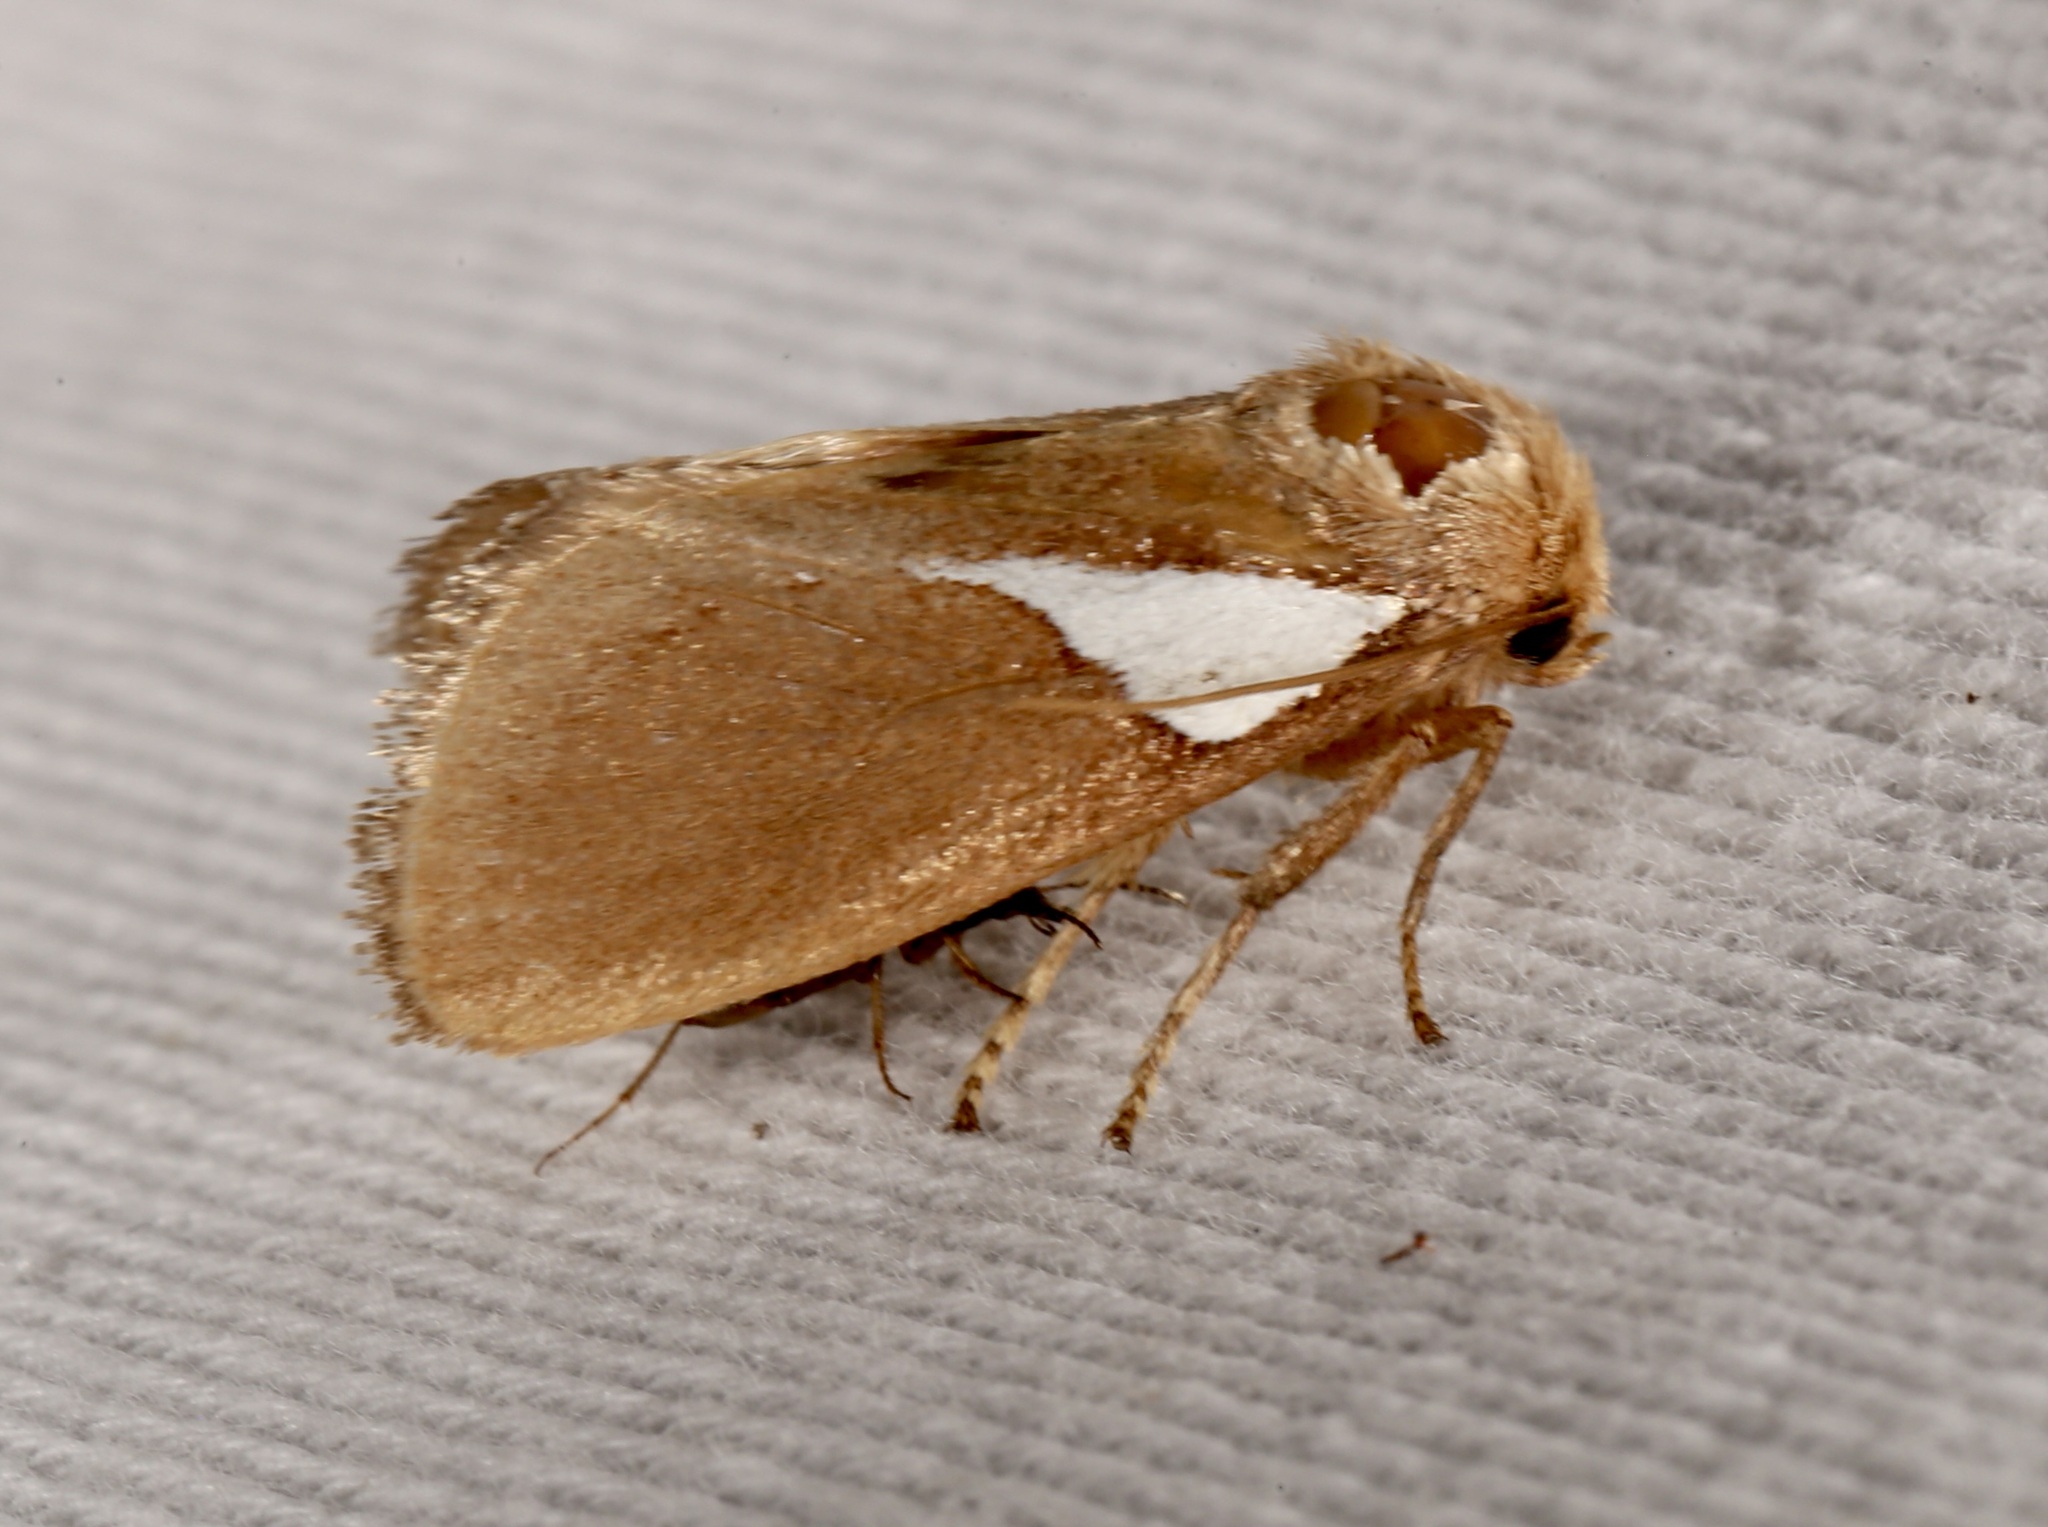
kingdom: Animalia
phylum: Arthropoda
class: Insecta
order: Lepidoptera
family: Limacodidae
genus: Prolimacodes
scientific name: Prolimacodes trigona
